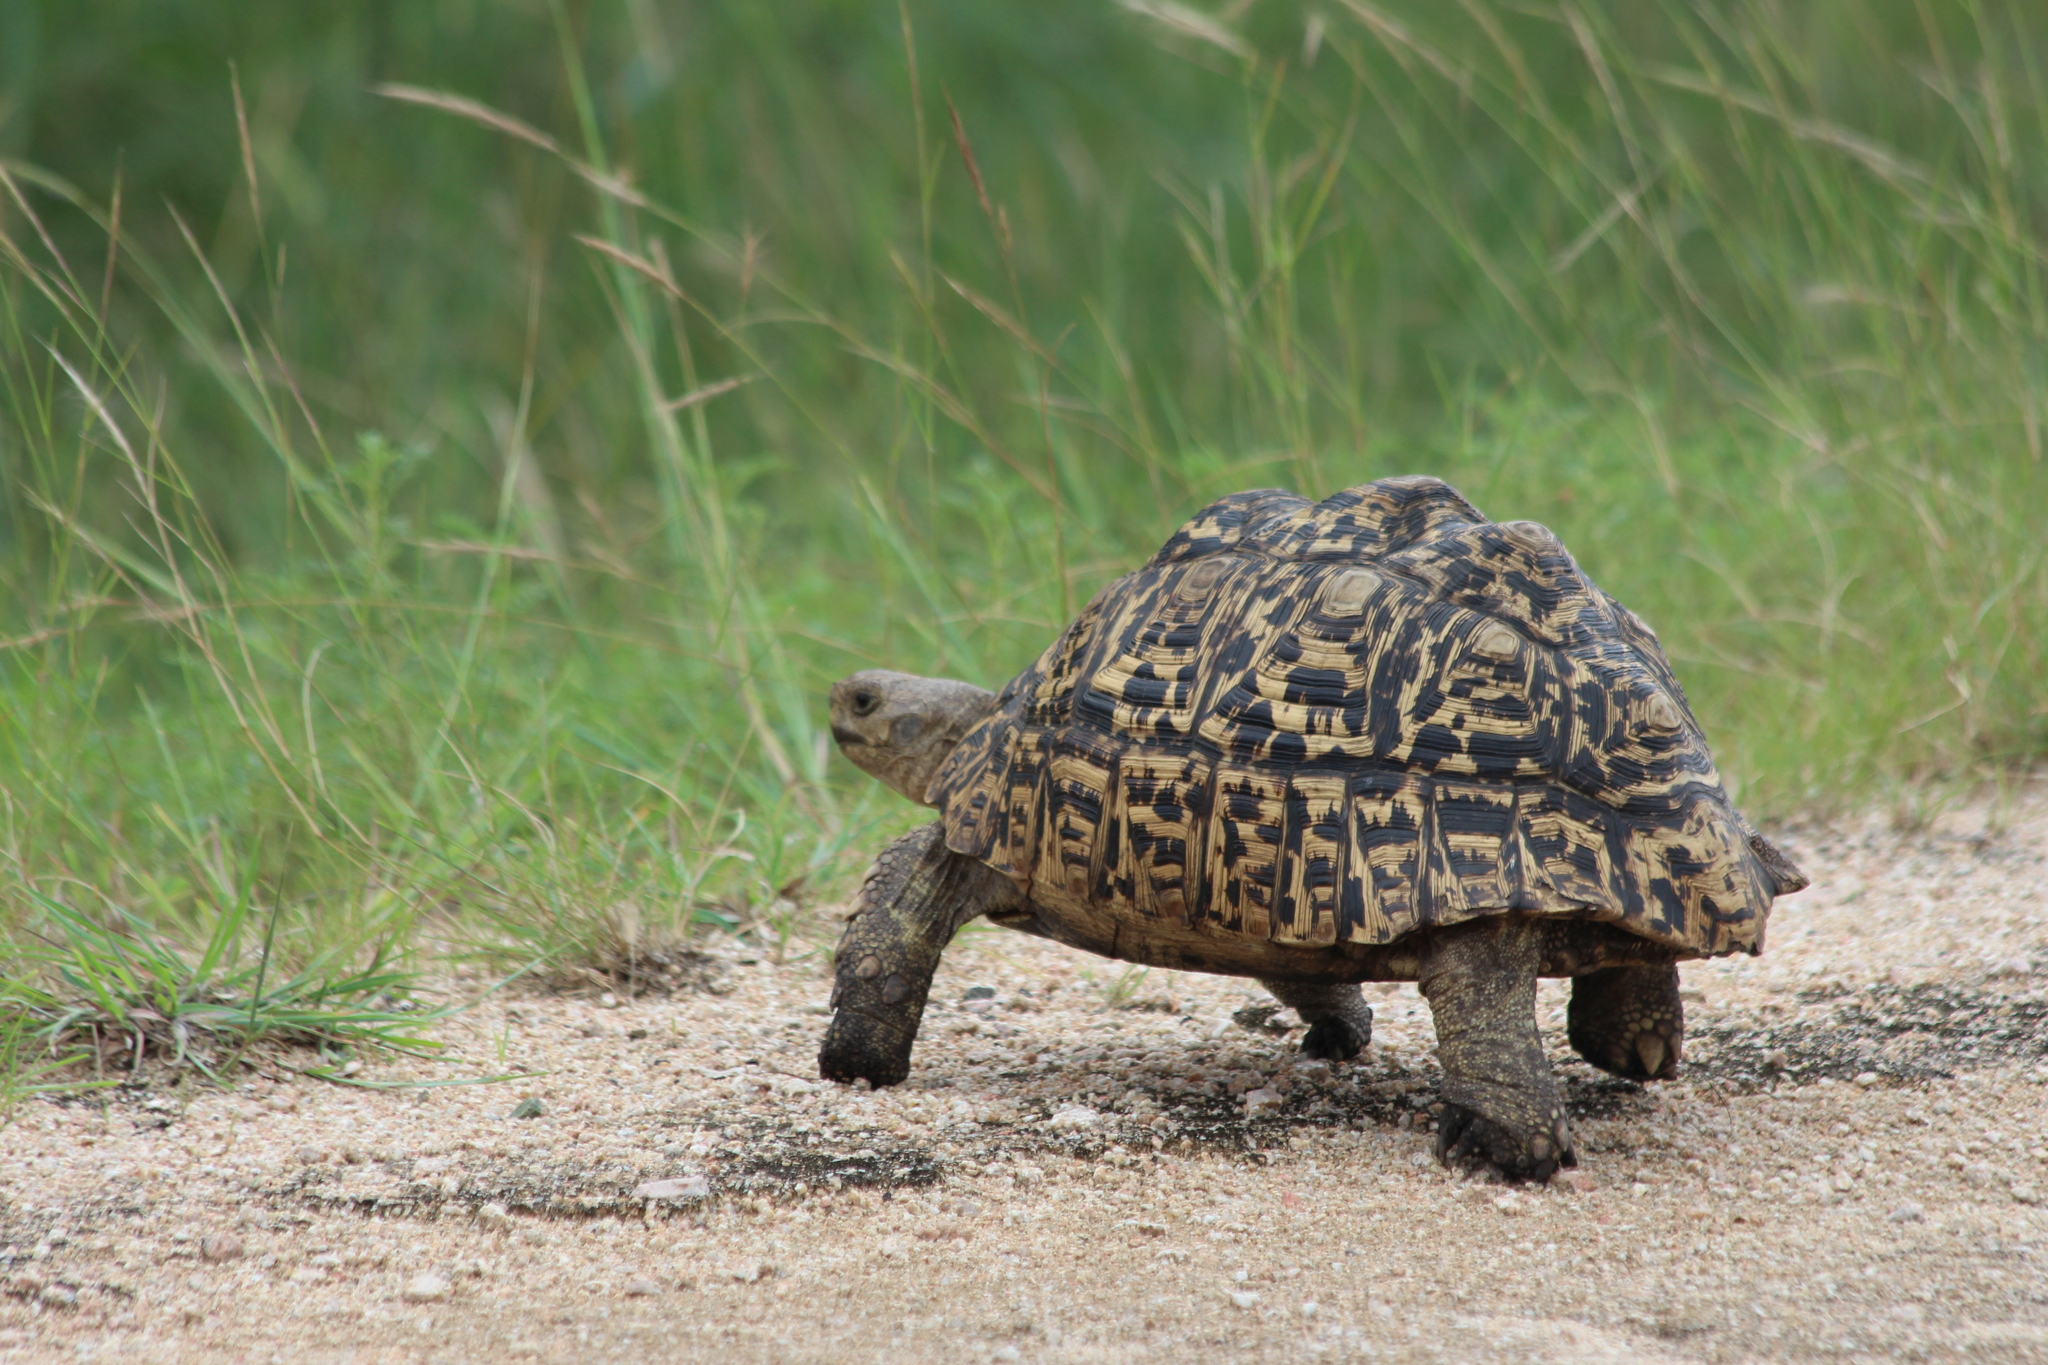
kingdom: Animalia
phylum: Chordata
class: Testudines
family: Testudinidae
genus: Stigmochelys
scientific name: Stigmochelys pardalis
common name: Leopard tortoise
